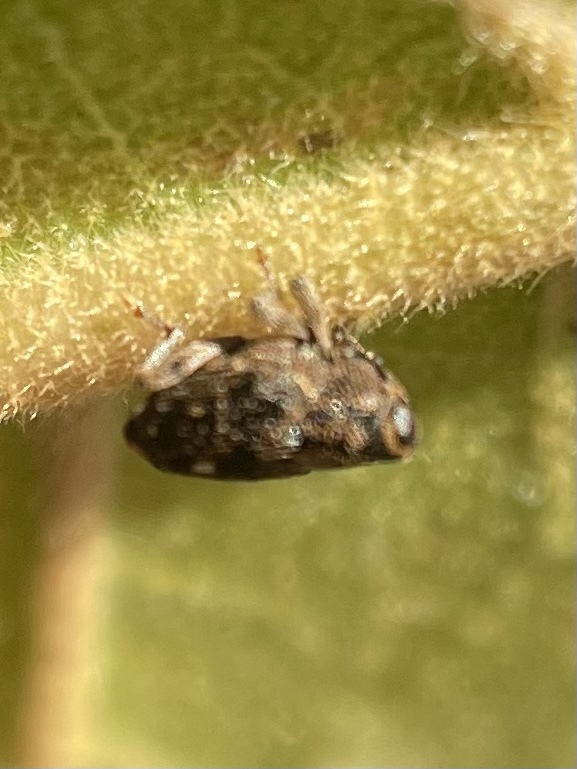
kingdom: Animalia
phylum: Arthropoda
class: Insecta
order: Coleoptera
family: Curculionidae
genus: Lechriops
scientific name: Lechriops oculatus
